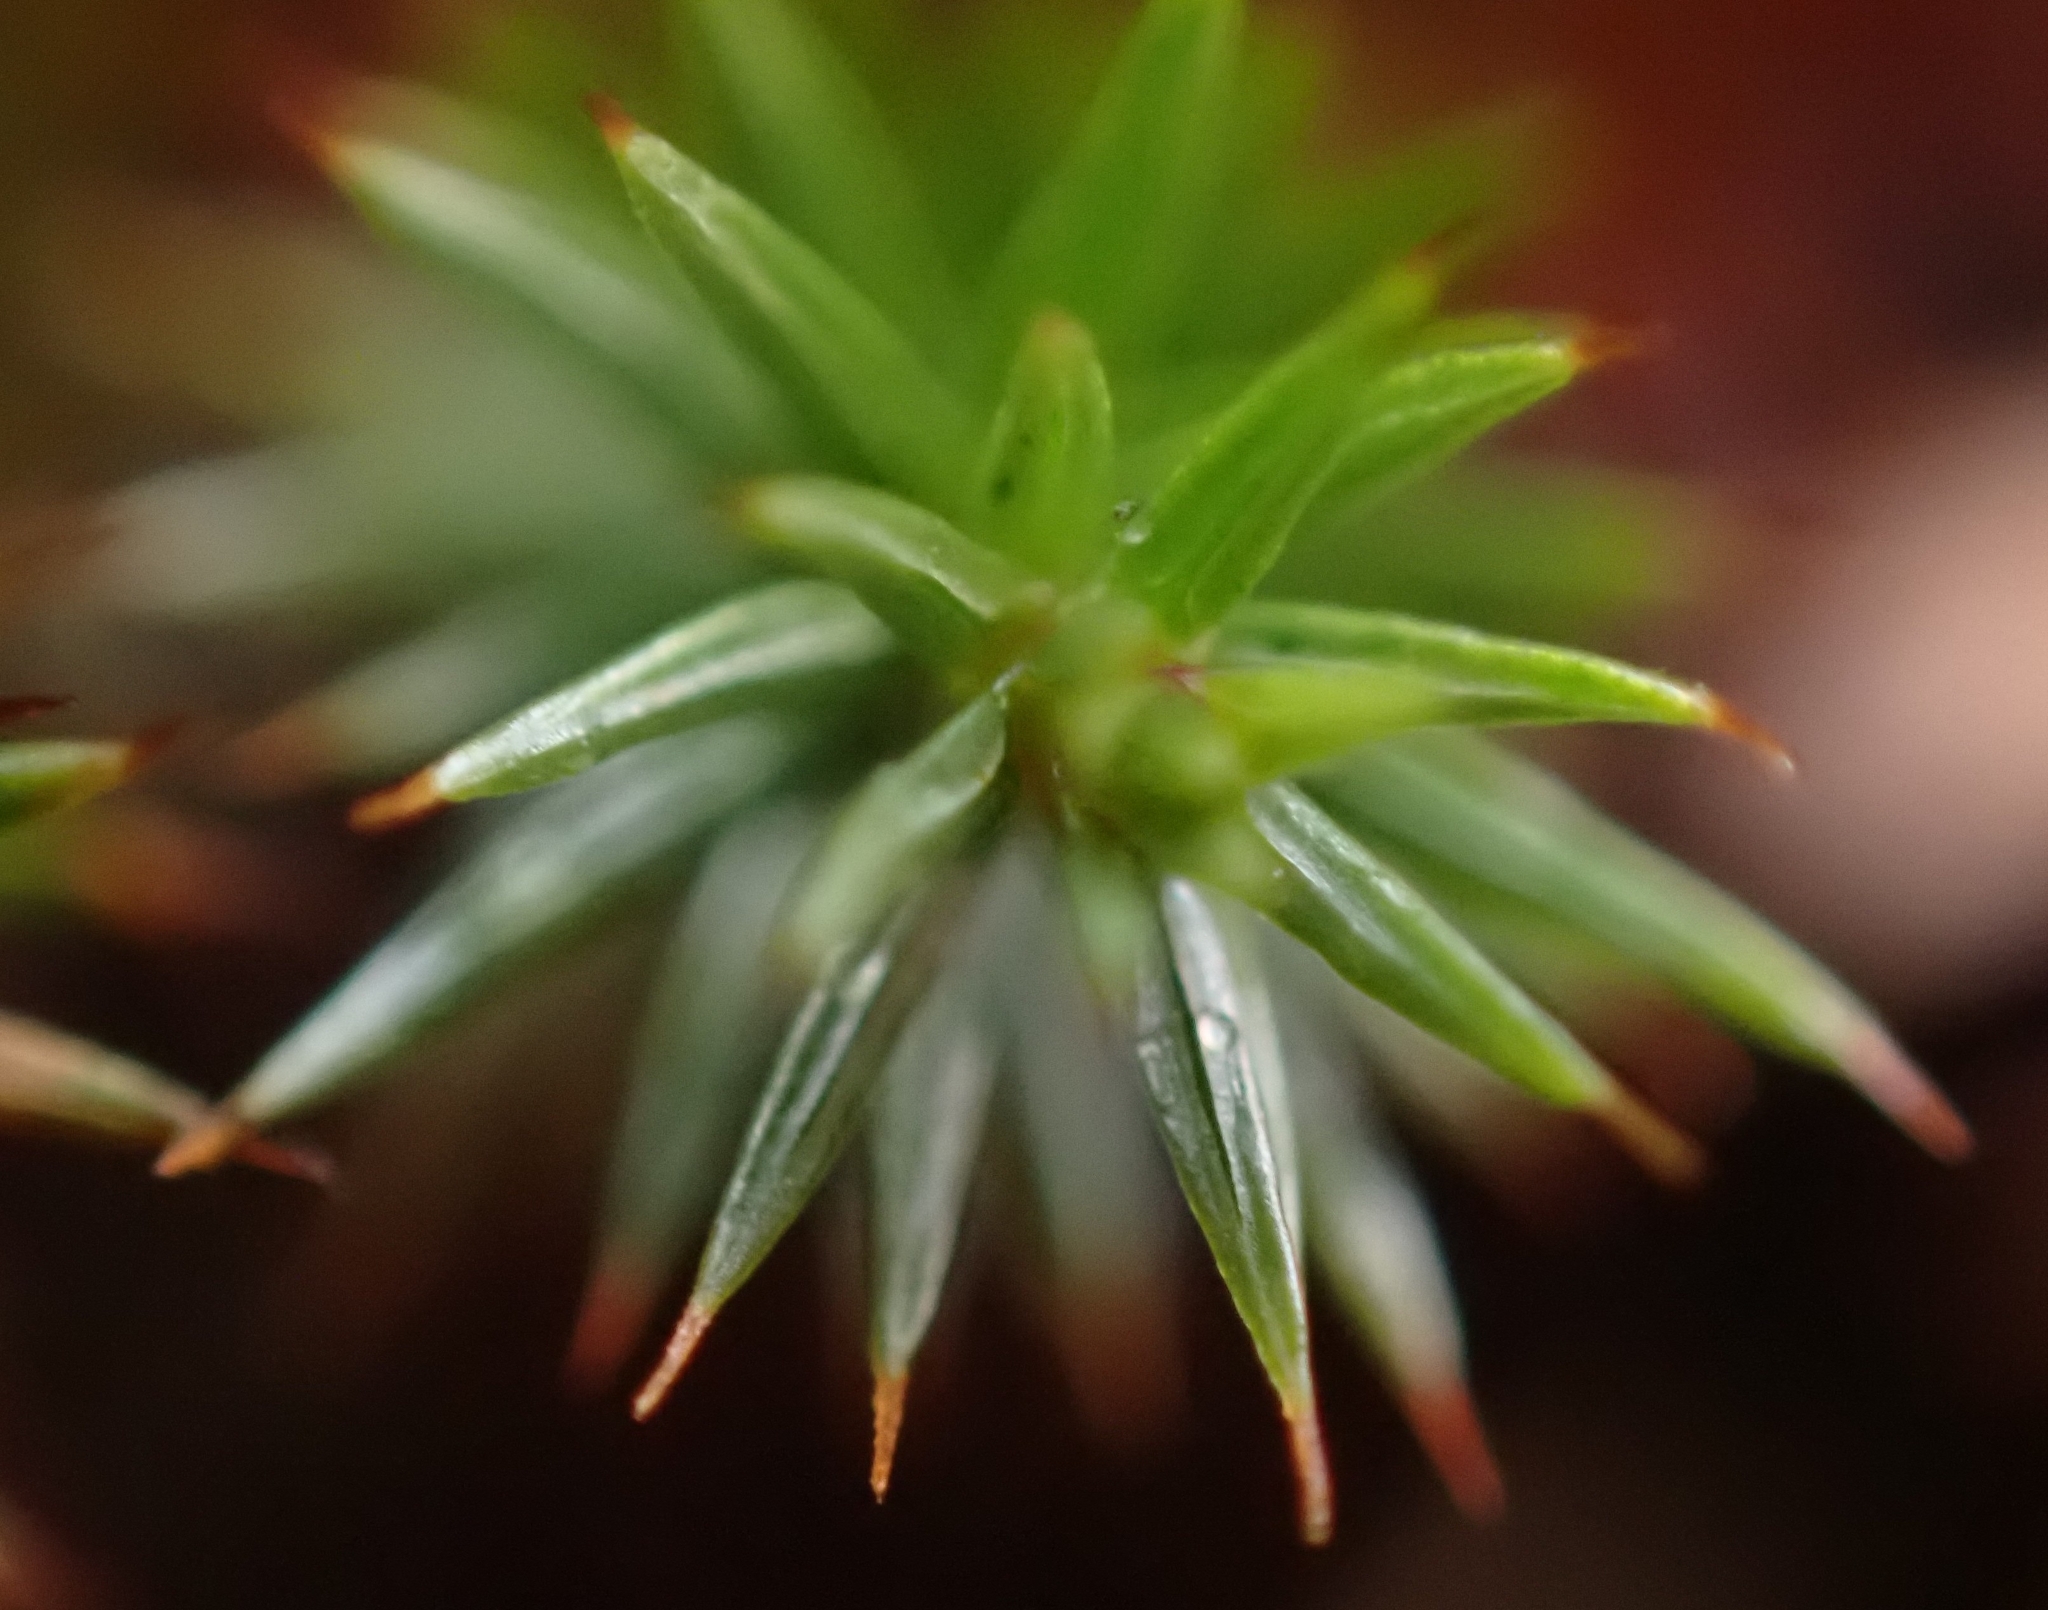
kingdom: Plantae
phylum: Bryophyta
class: Polytrichopsida
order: Polytrichales
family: Polytrichaceae
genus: Polytrichum
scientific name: Polytrichum juniperinum
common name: Juniper haircap moss
